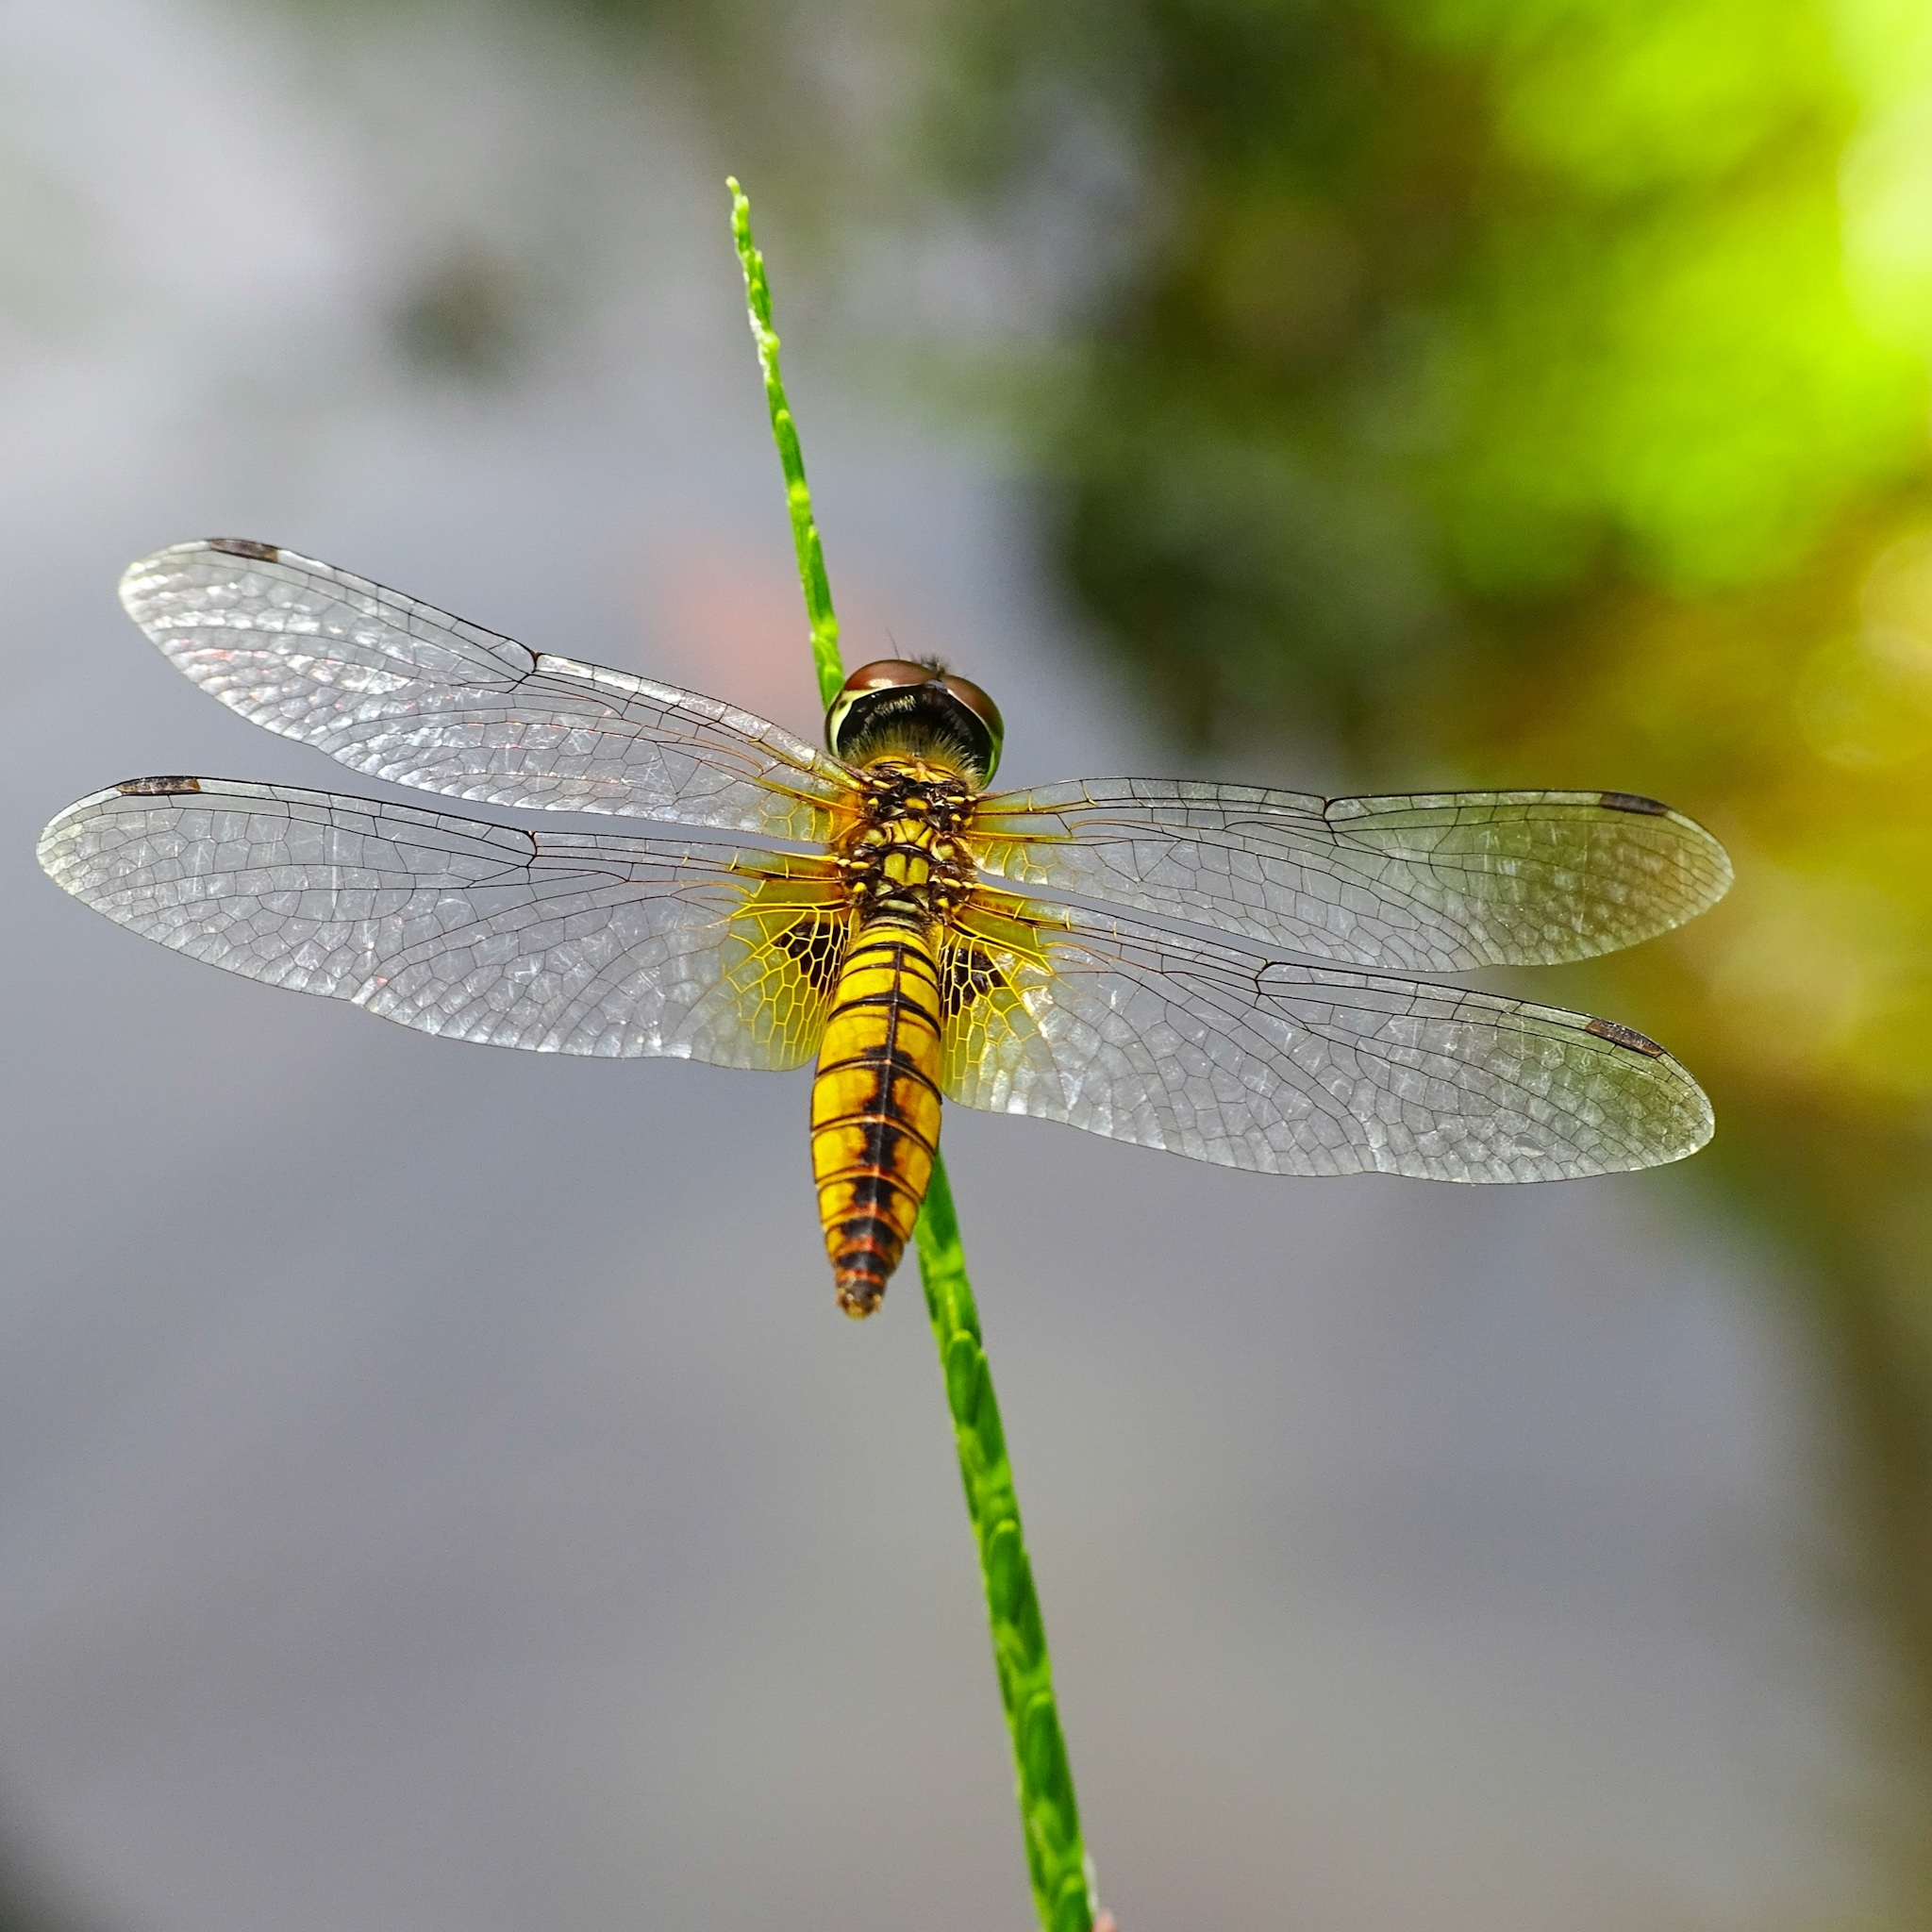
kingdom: Animalia
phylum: Arthropoda
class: Insecta
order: Odonata
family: Libellulidae
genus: Aethriamanta
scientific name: Aethriamanta brevipennis
